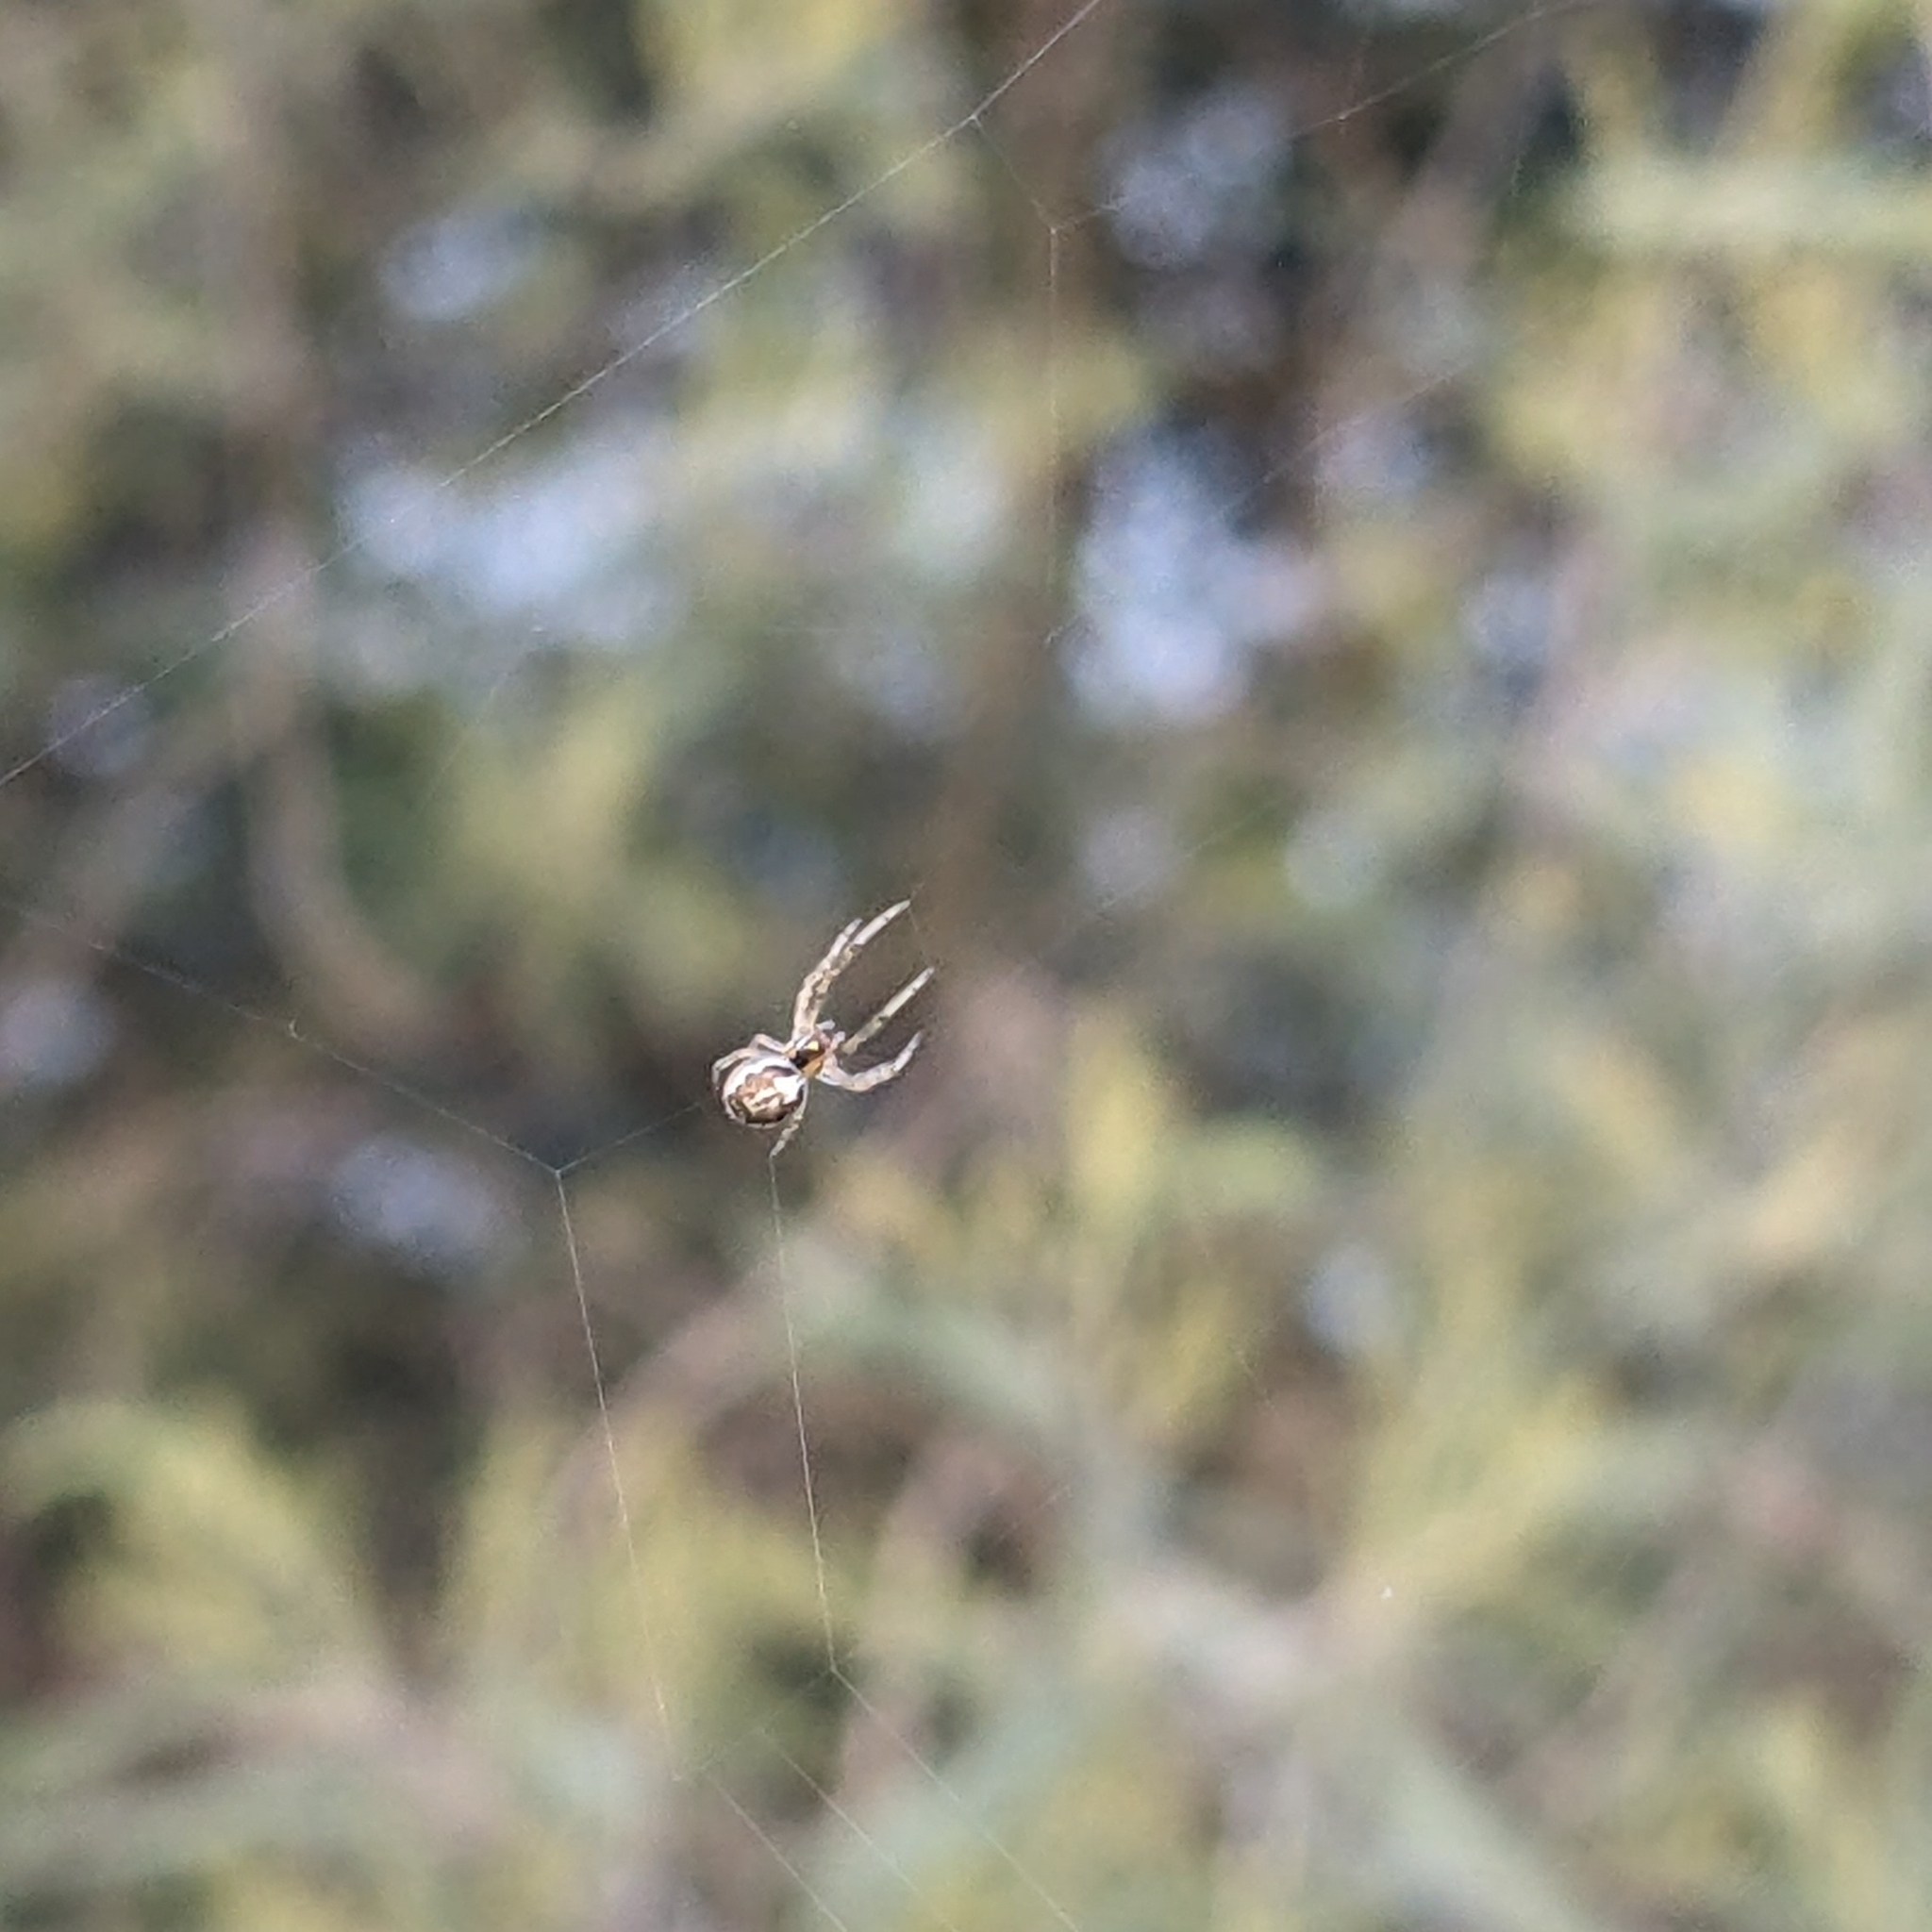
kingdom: Animalia
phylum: Arthropoda
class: Arachnida
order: Araneae
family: Araneidae
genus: Zygiella
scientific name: Zygiella x-notata
